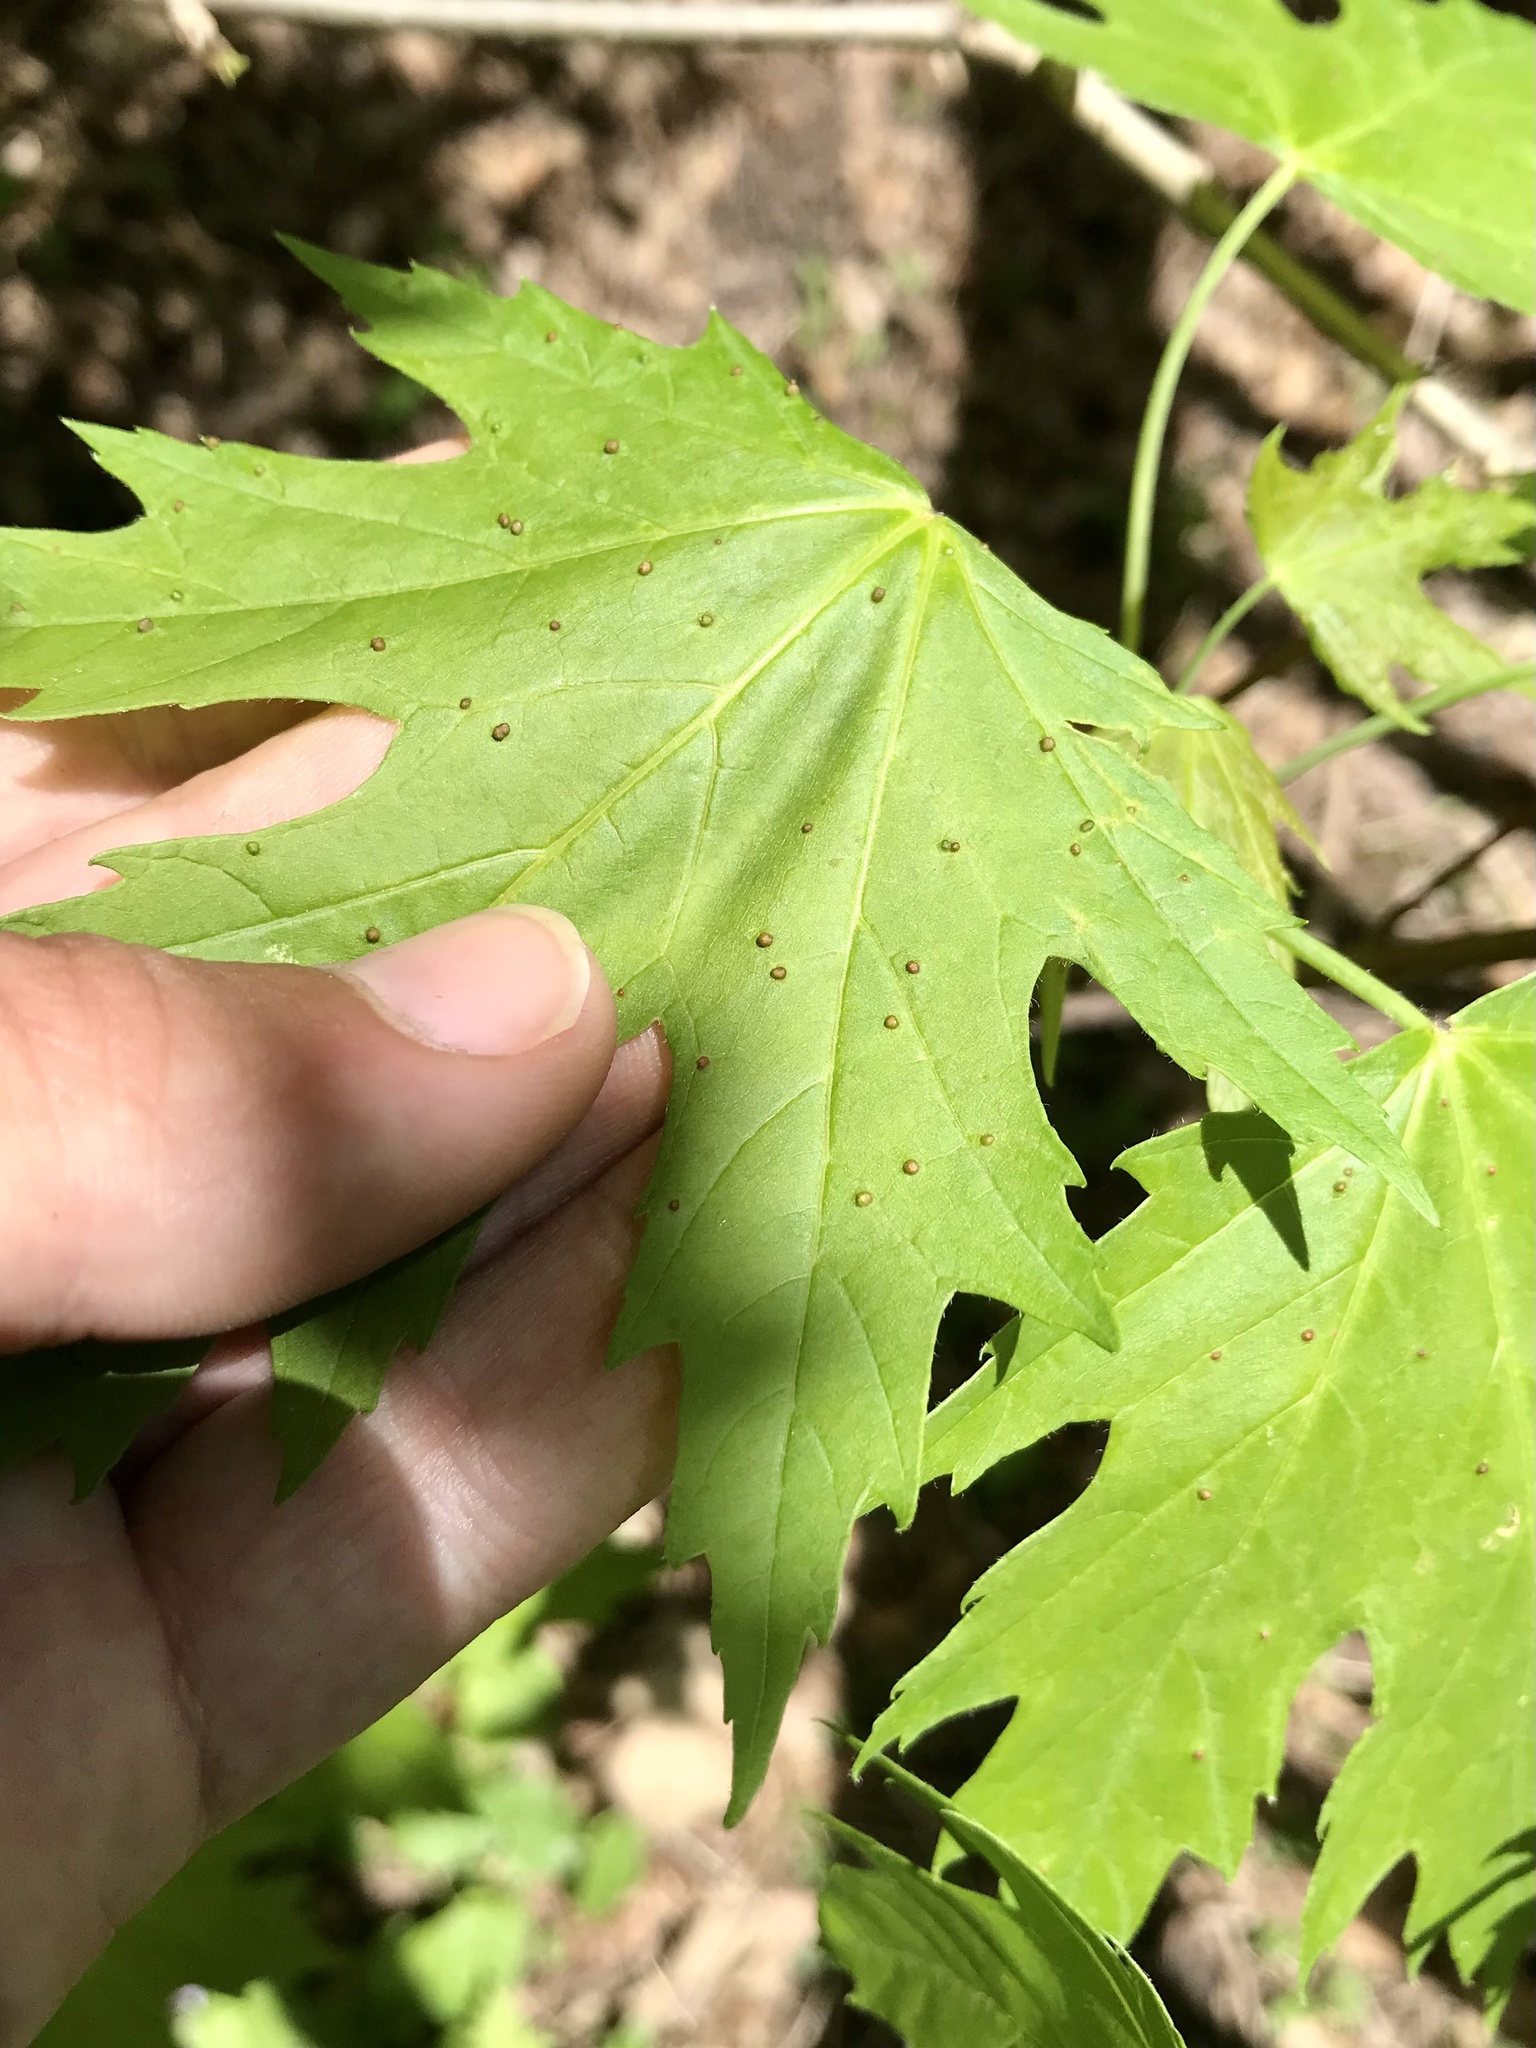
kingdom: Animalia
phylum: Arthropoda
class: Arachnida
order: Trombidiformes
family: Eriophyidae
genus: Vasates
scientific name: Vasates quadripedes
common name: Maple bladder gall mite
